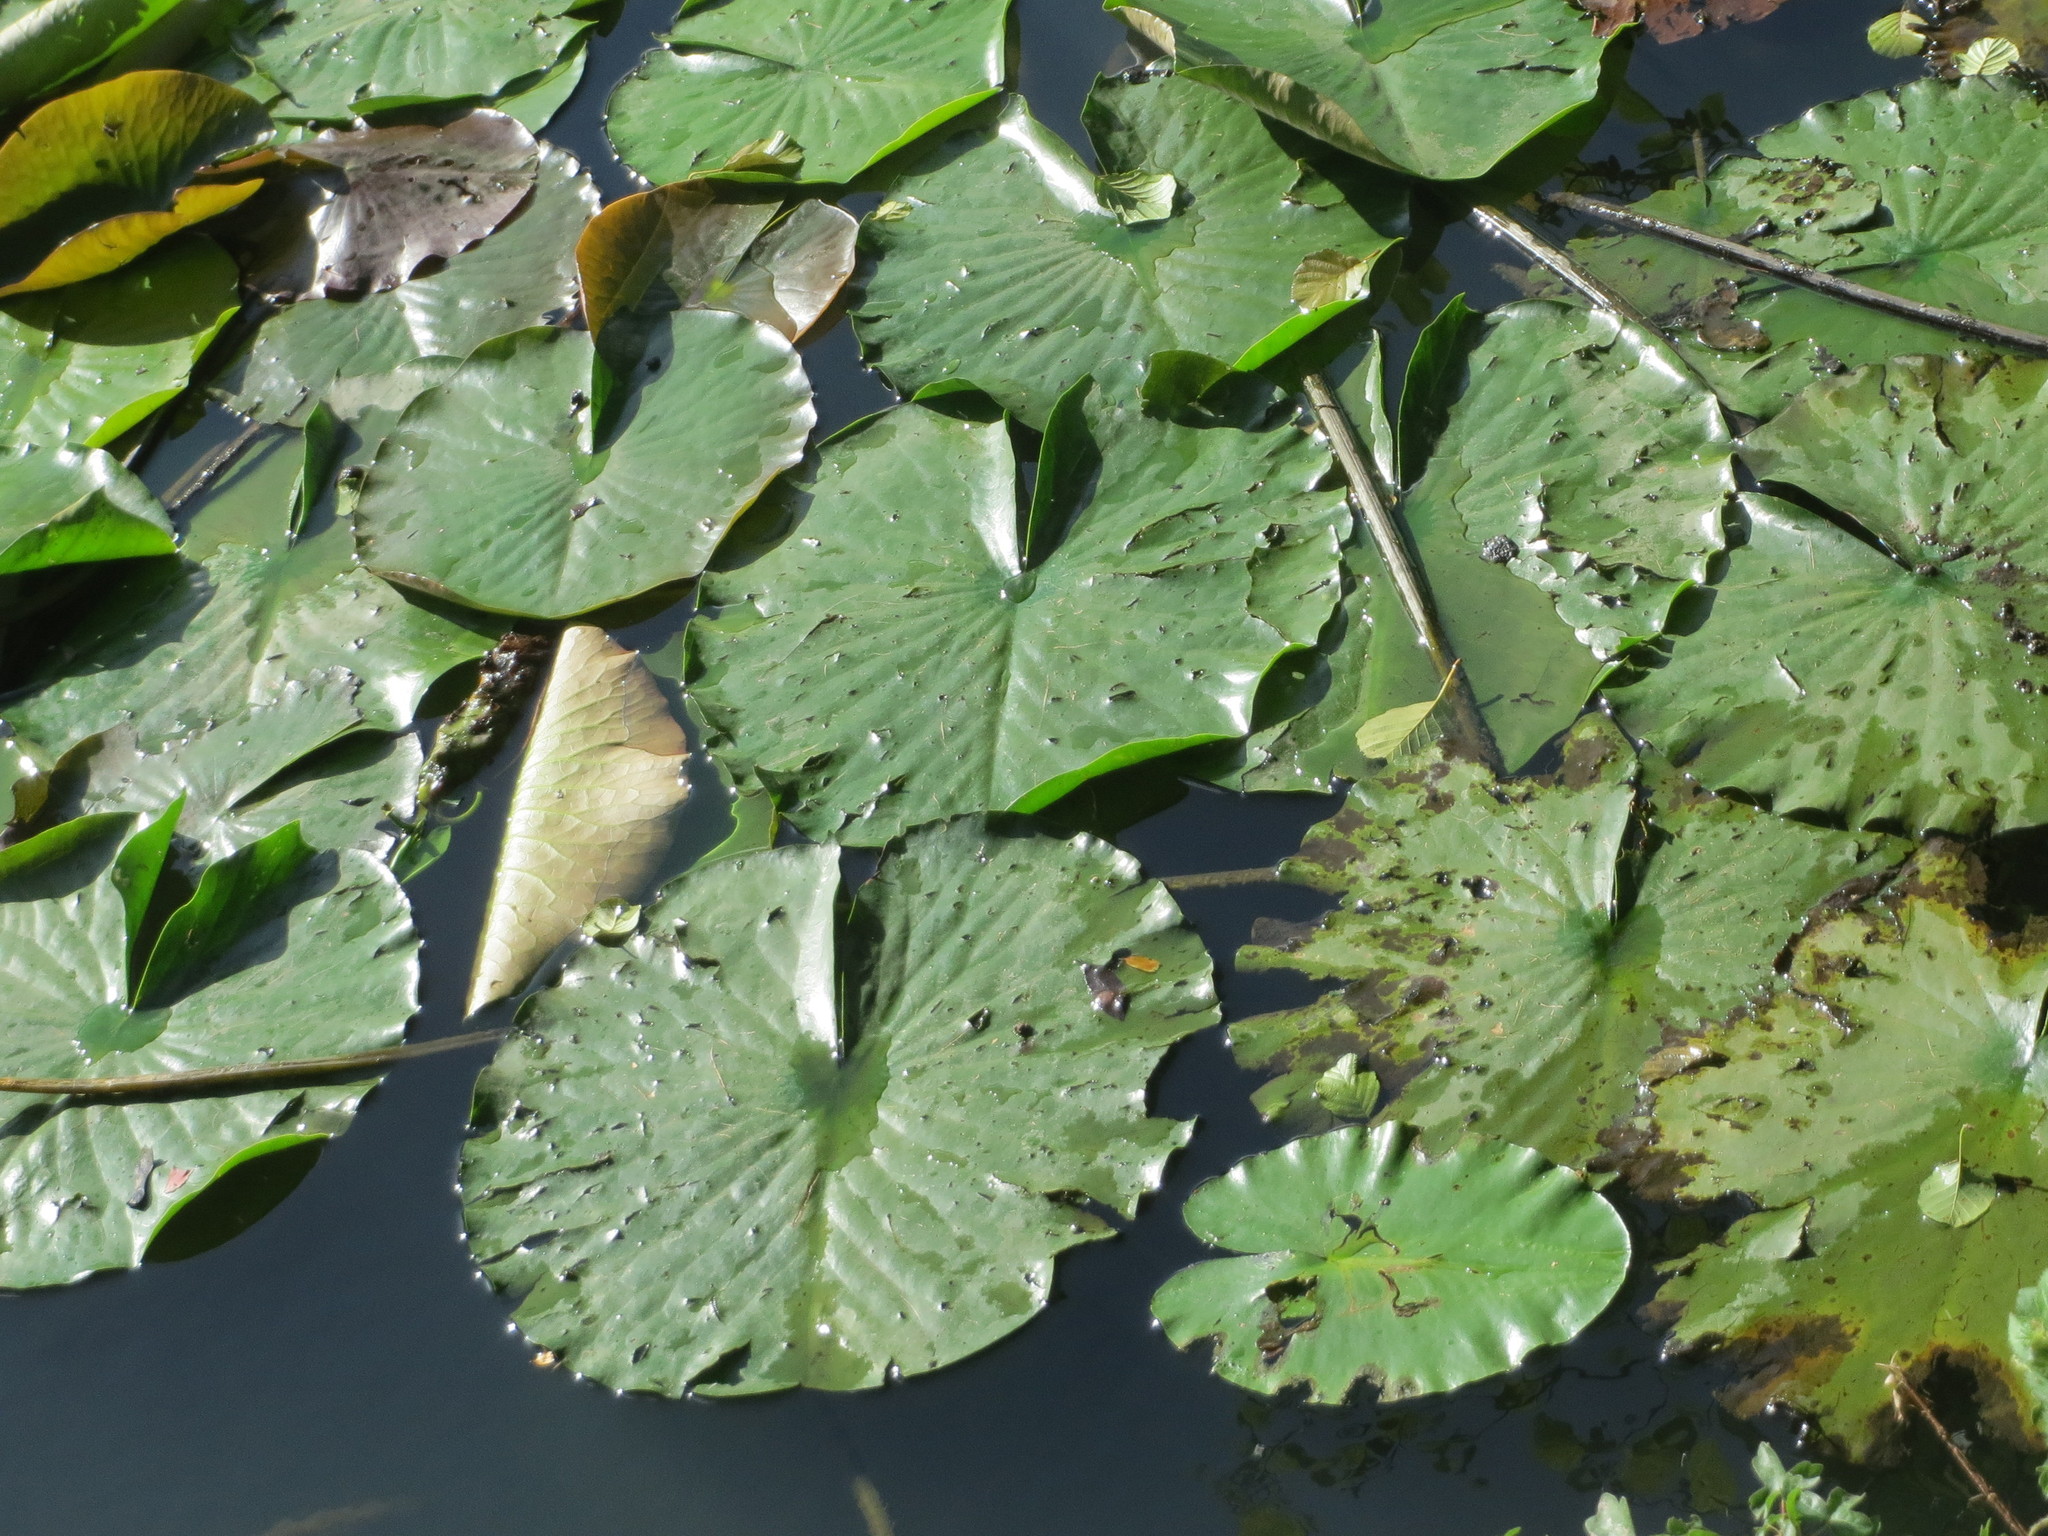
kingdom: Plantae
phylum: Tracheophyta
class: Magnoliopsida
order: Nymphaeales
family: Nymphaeaceae
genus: Nymphaea
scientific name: Nymphaea alba
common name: White water-lily
